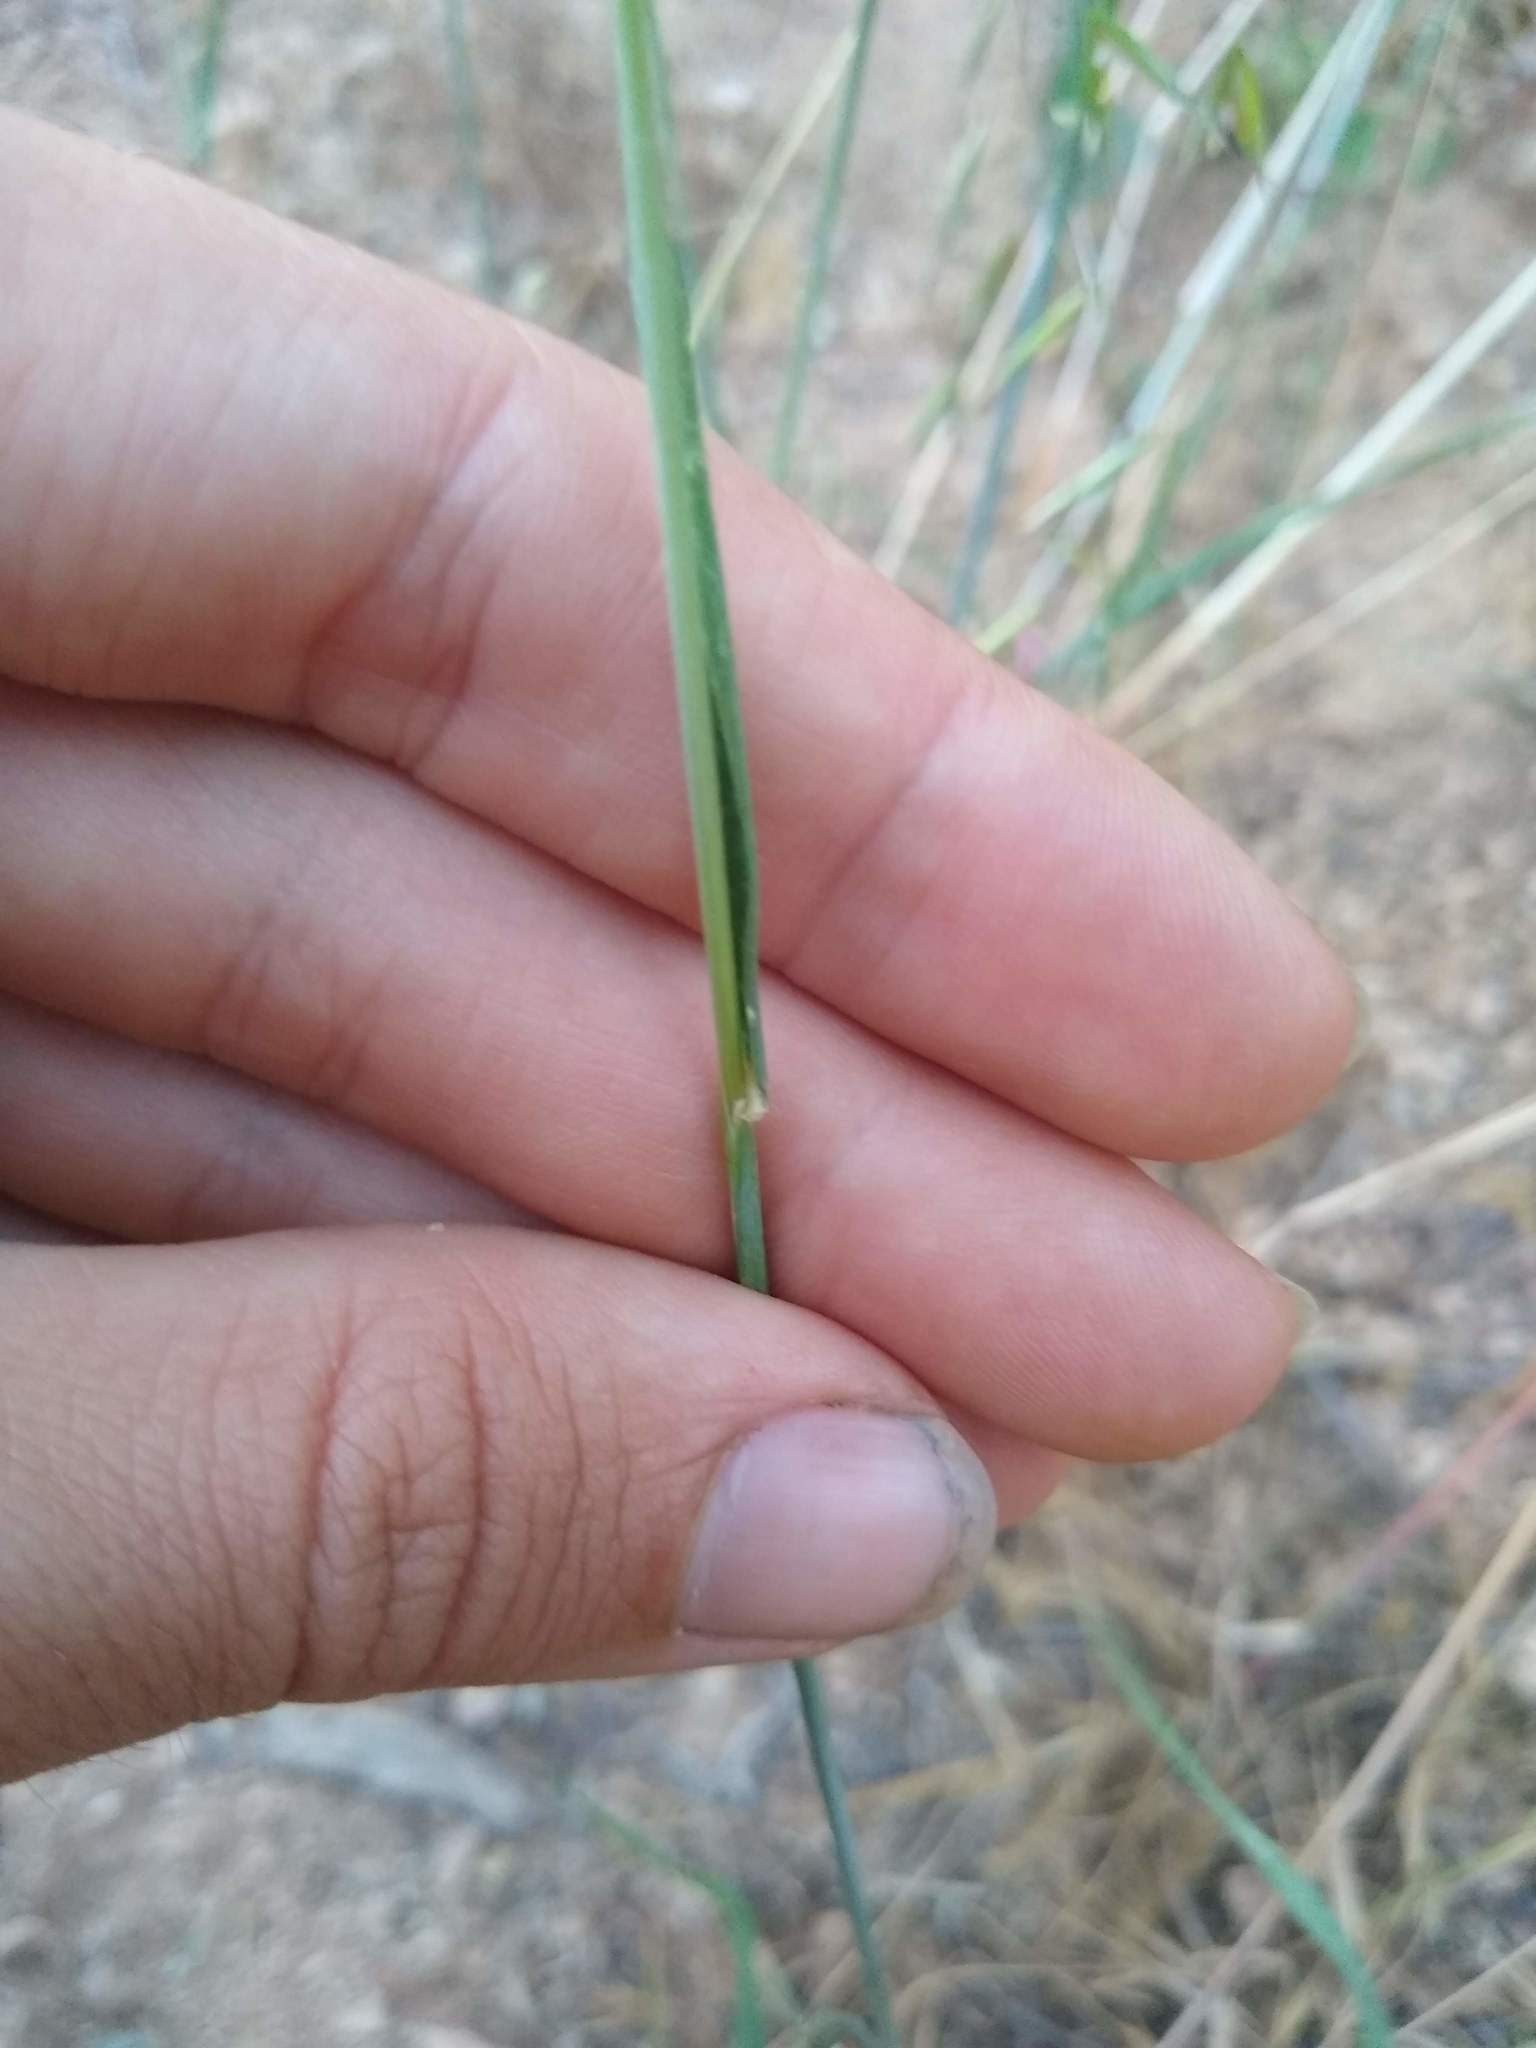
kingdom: Plantae
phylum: Tracheophyta
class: Liliopsida
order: Poales
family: Poaceae
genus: Avena
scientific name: Avena barbata
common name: Slender oat
